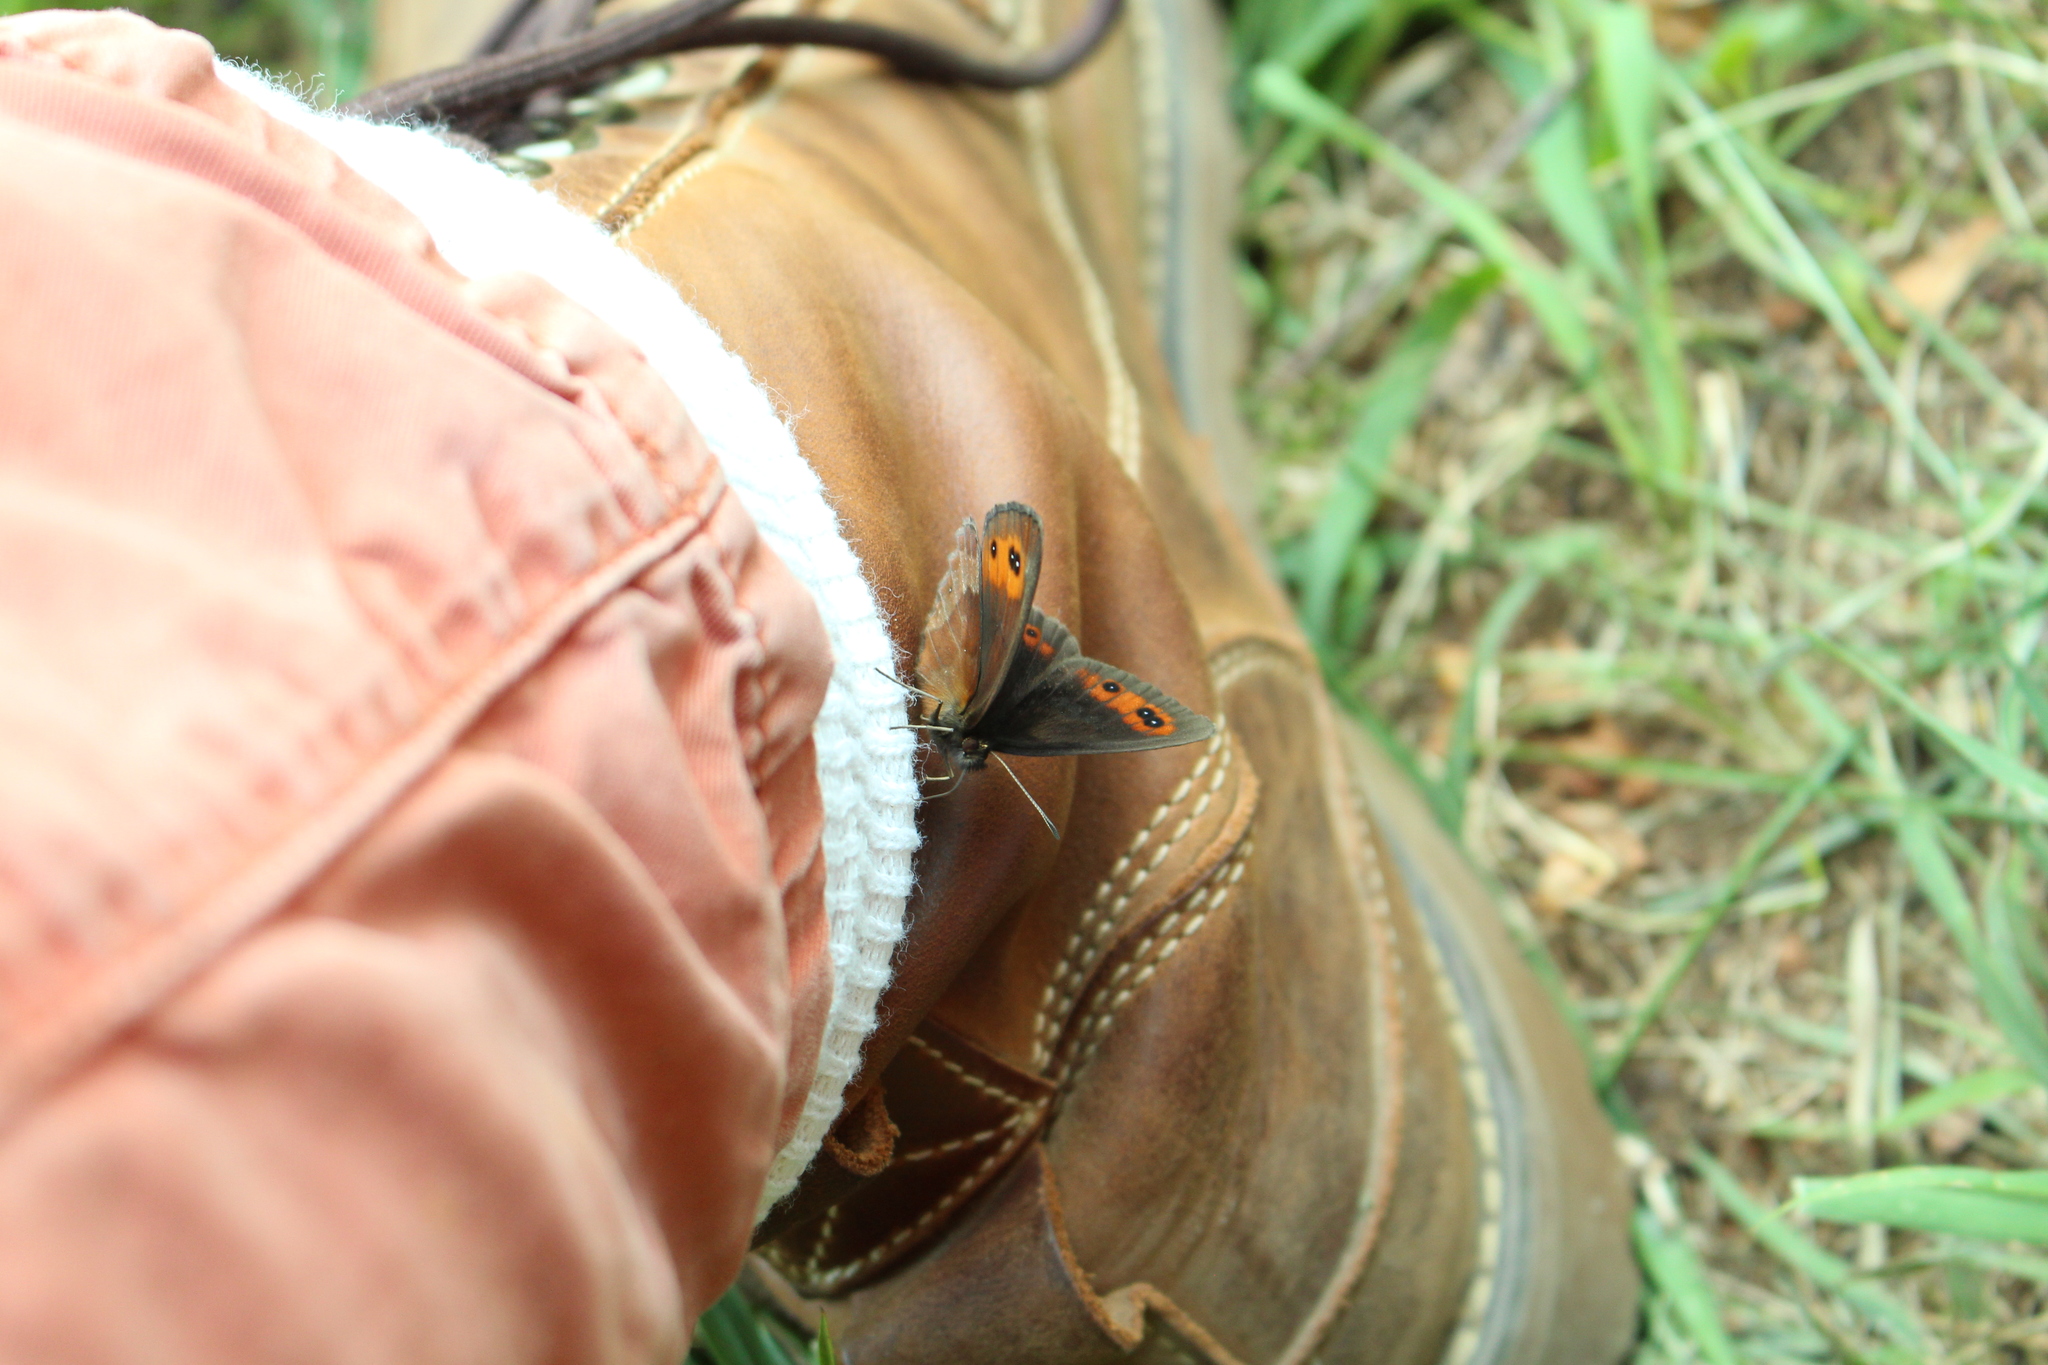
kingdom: Animalia
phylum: Arthropoda
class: Insecta
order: Lepidoptera
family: Nymphalidae
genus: Erebia
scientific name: Erebia aethiops
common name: Scotch argus
